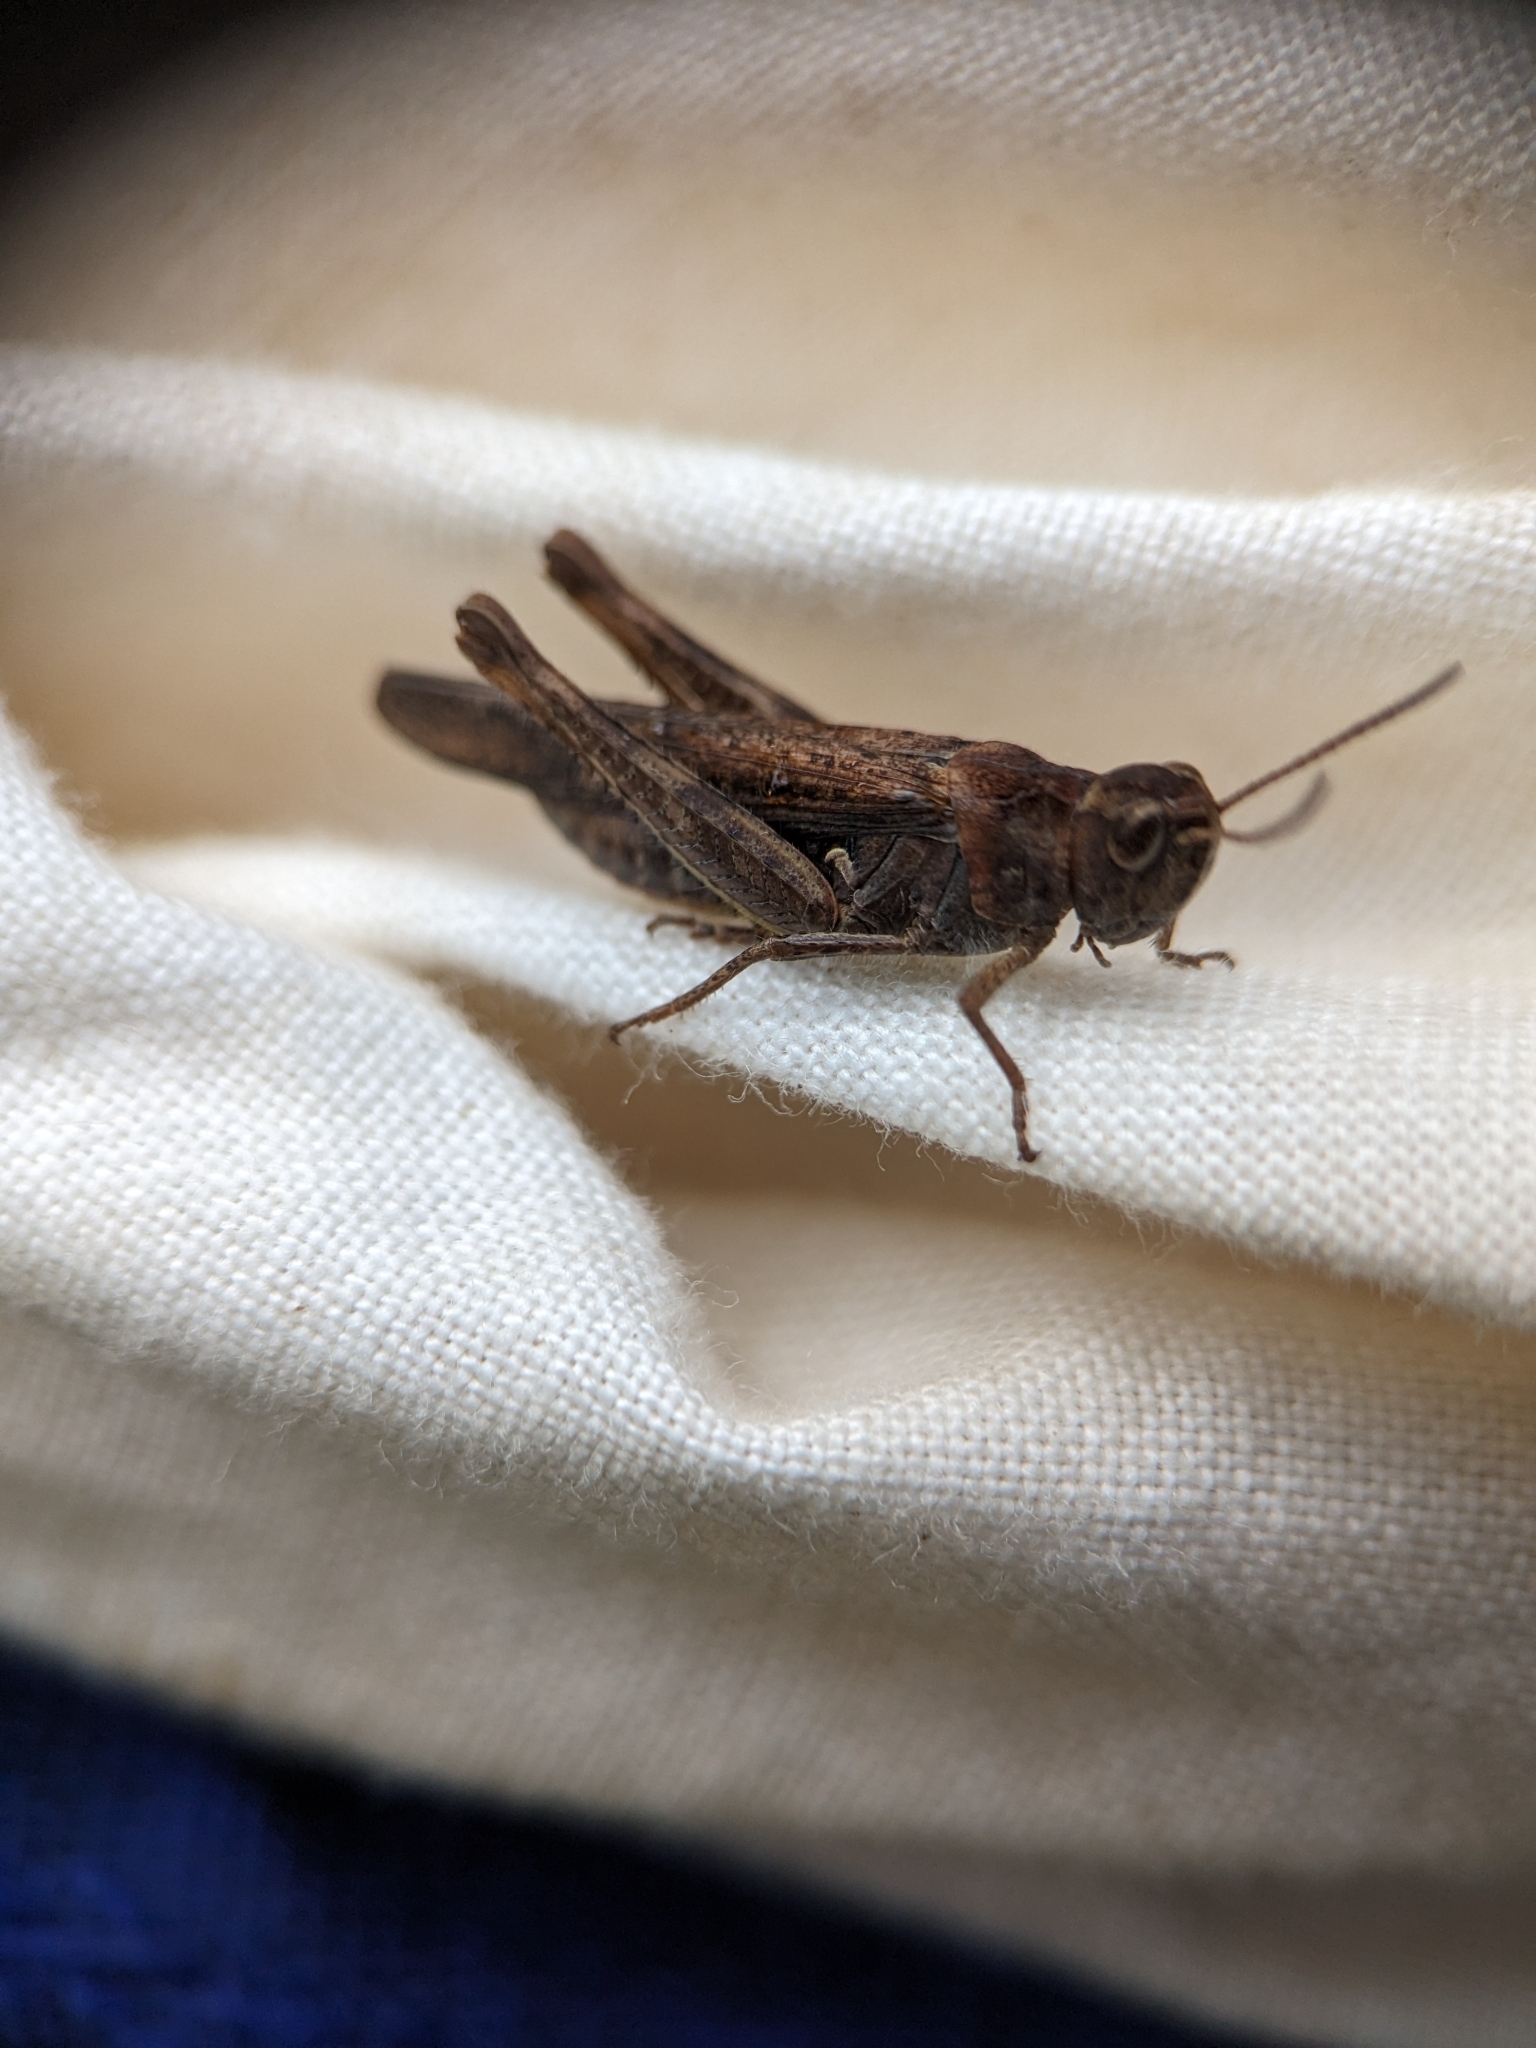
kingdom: Animalia
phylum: Arthropoda
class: Insecta
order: Orthoptera
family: Acrididae
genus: Chorthippus
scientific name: Chorthippus brunneus
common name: Field grasshopper
